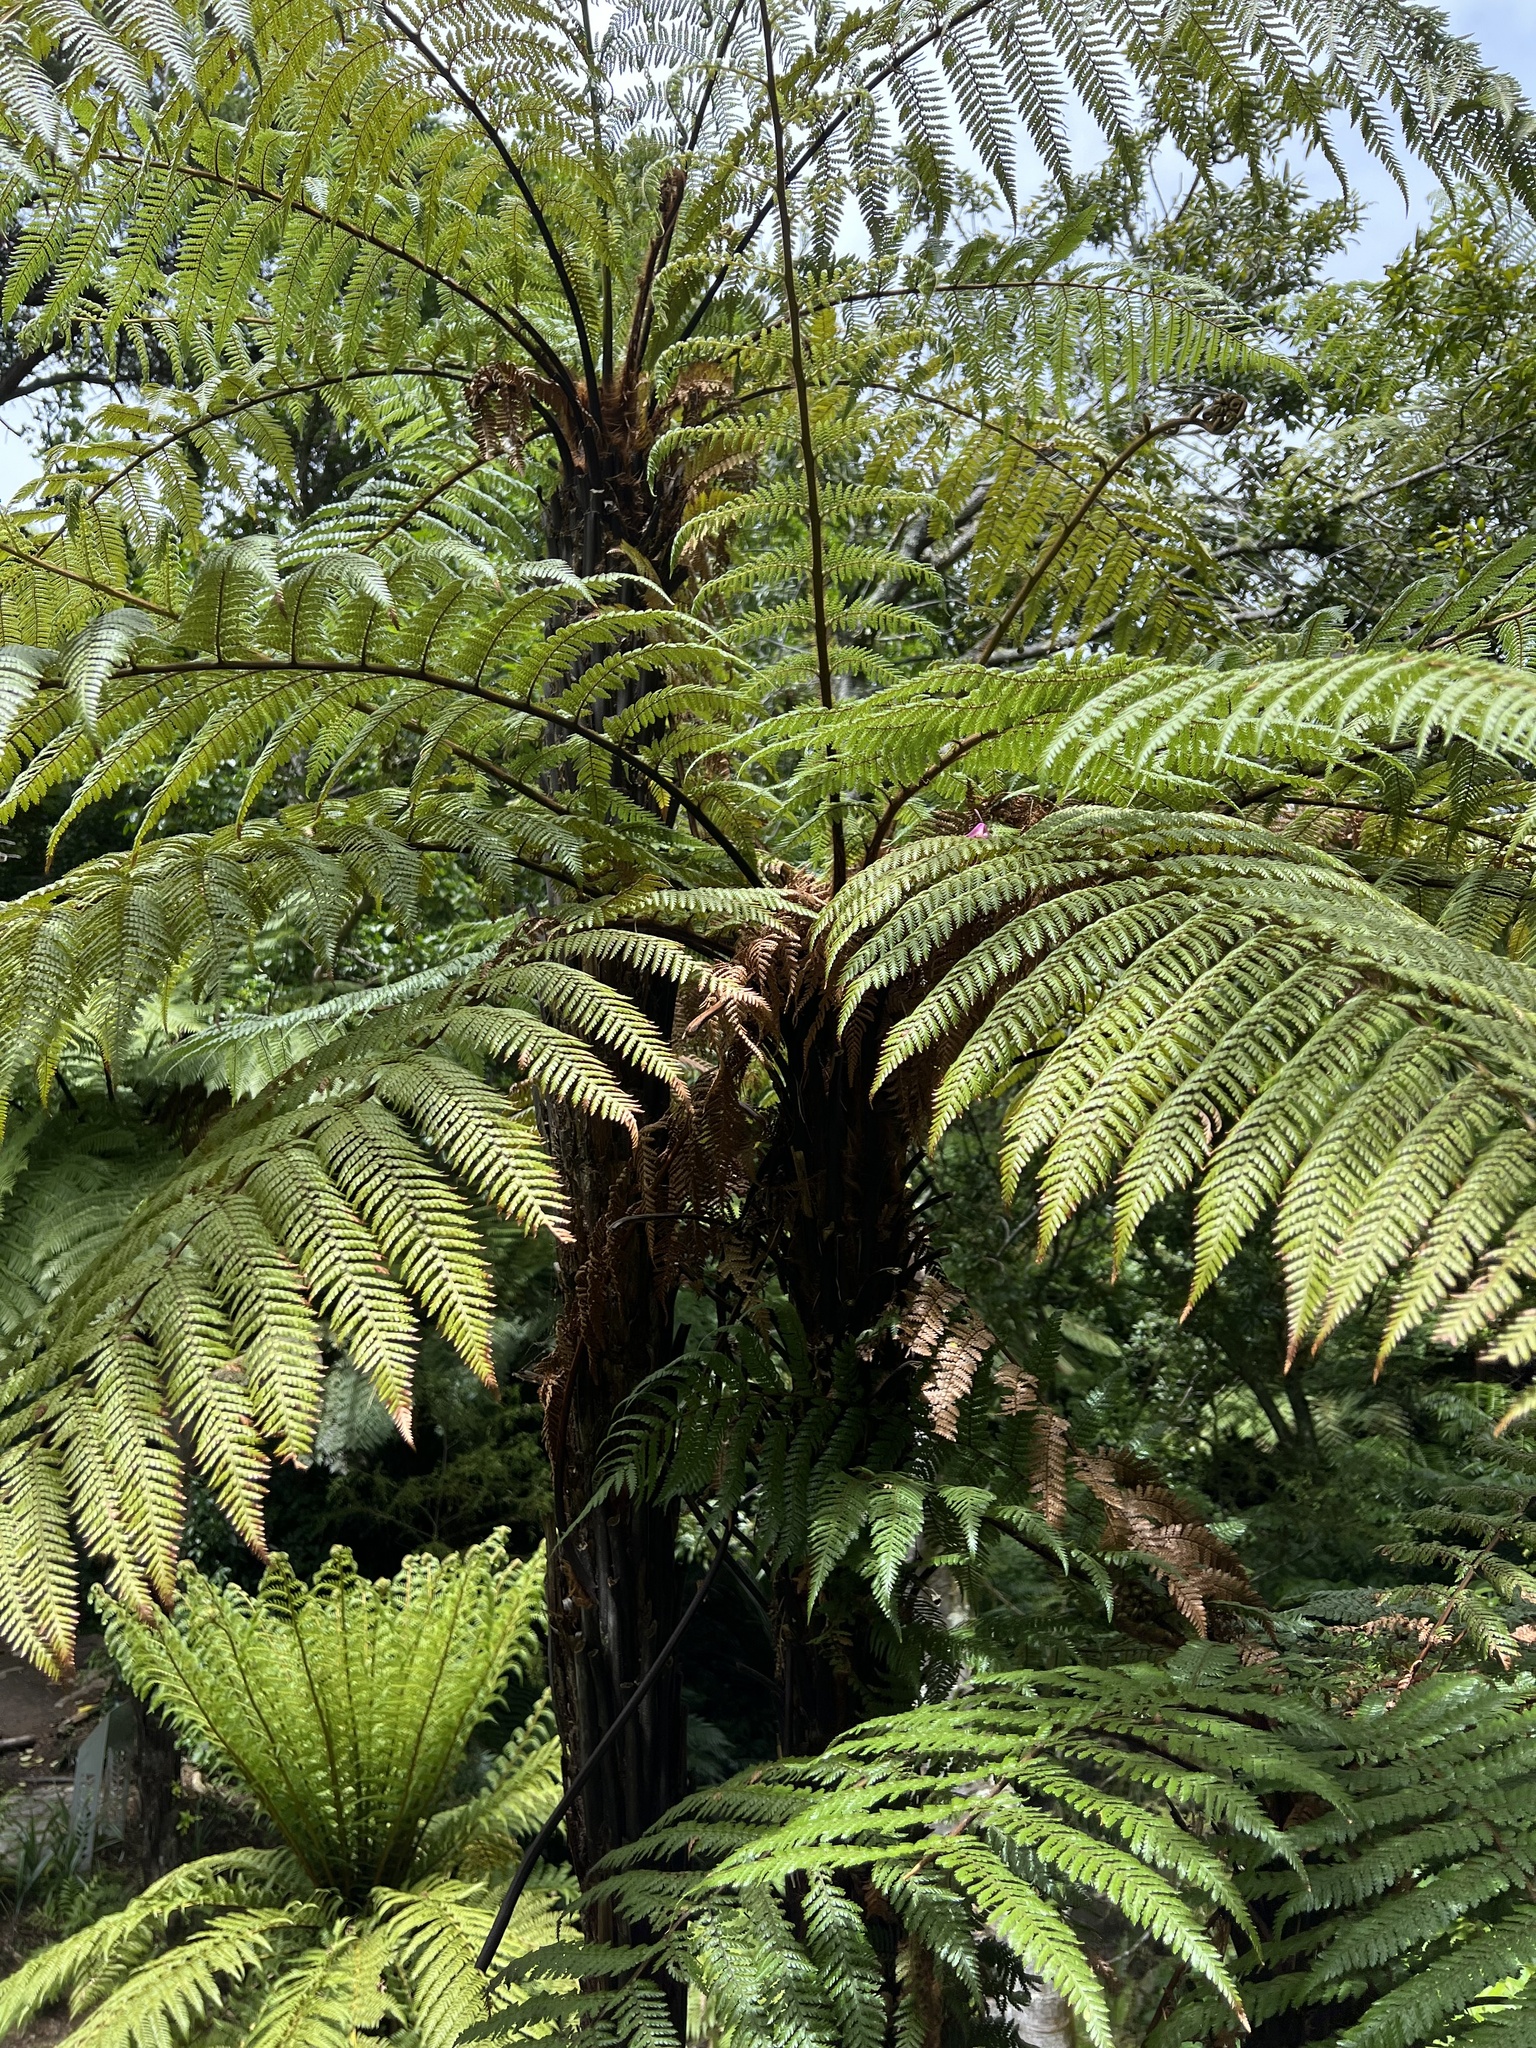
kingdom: Plantae
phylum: Tracheophyta
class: Polypodiopsida
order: Cyatheales
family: Dicksoniaceae
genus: Dicksonia
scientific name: Dicksonia squarrosa
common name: Hard treefern
